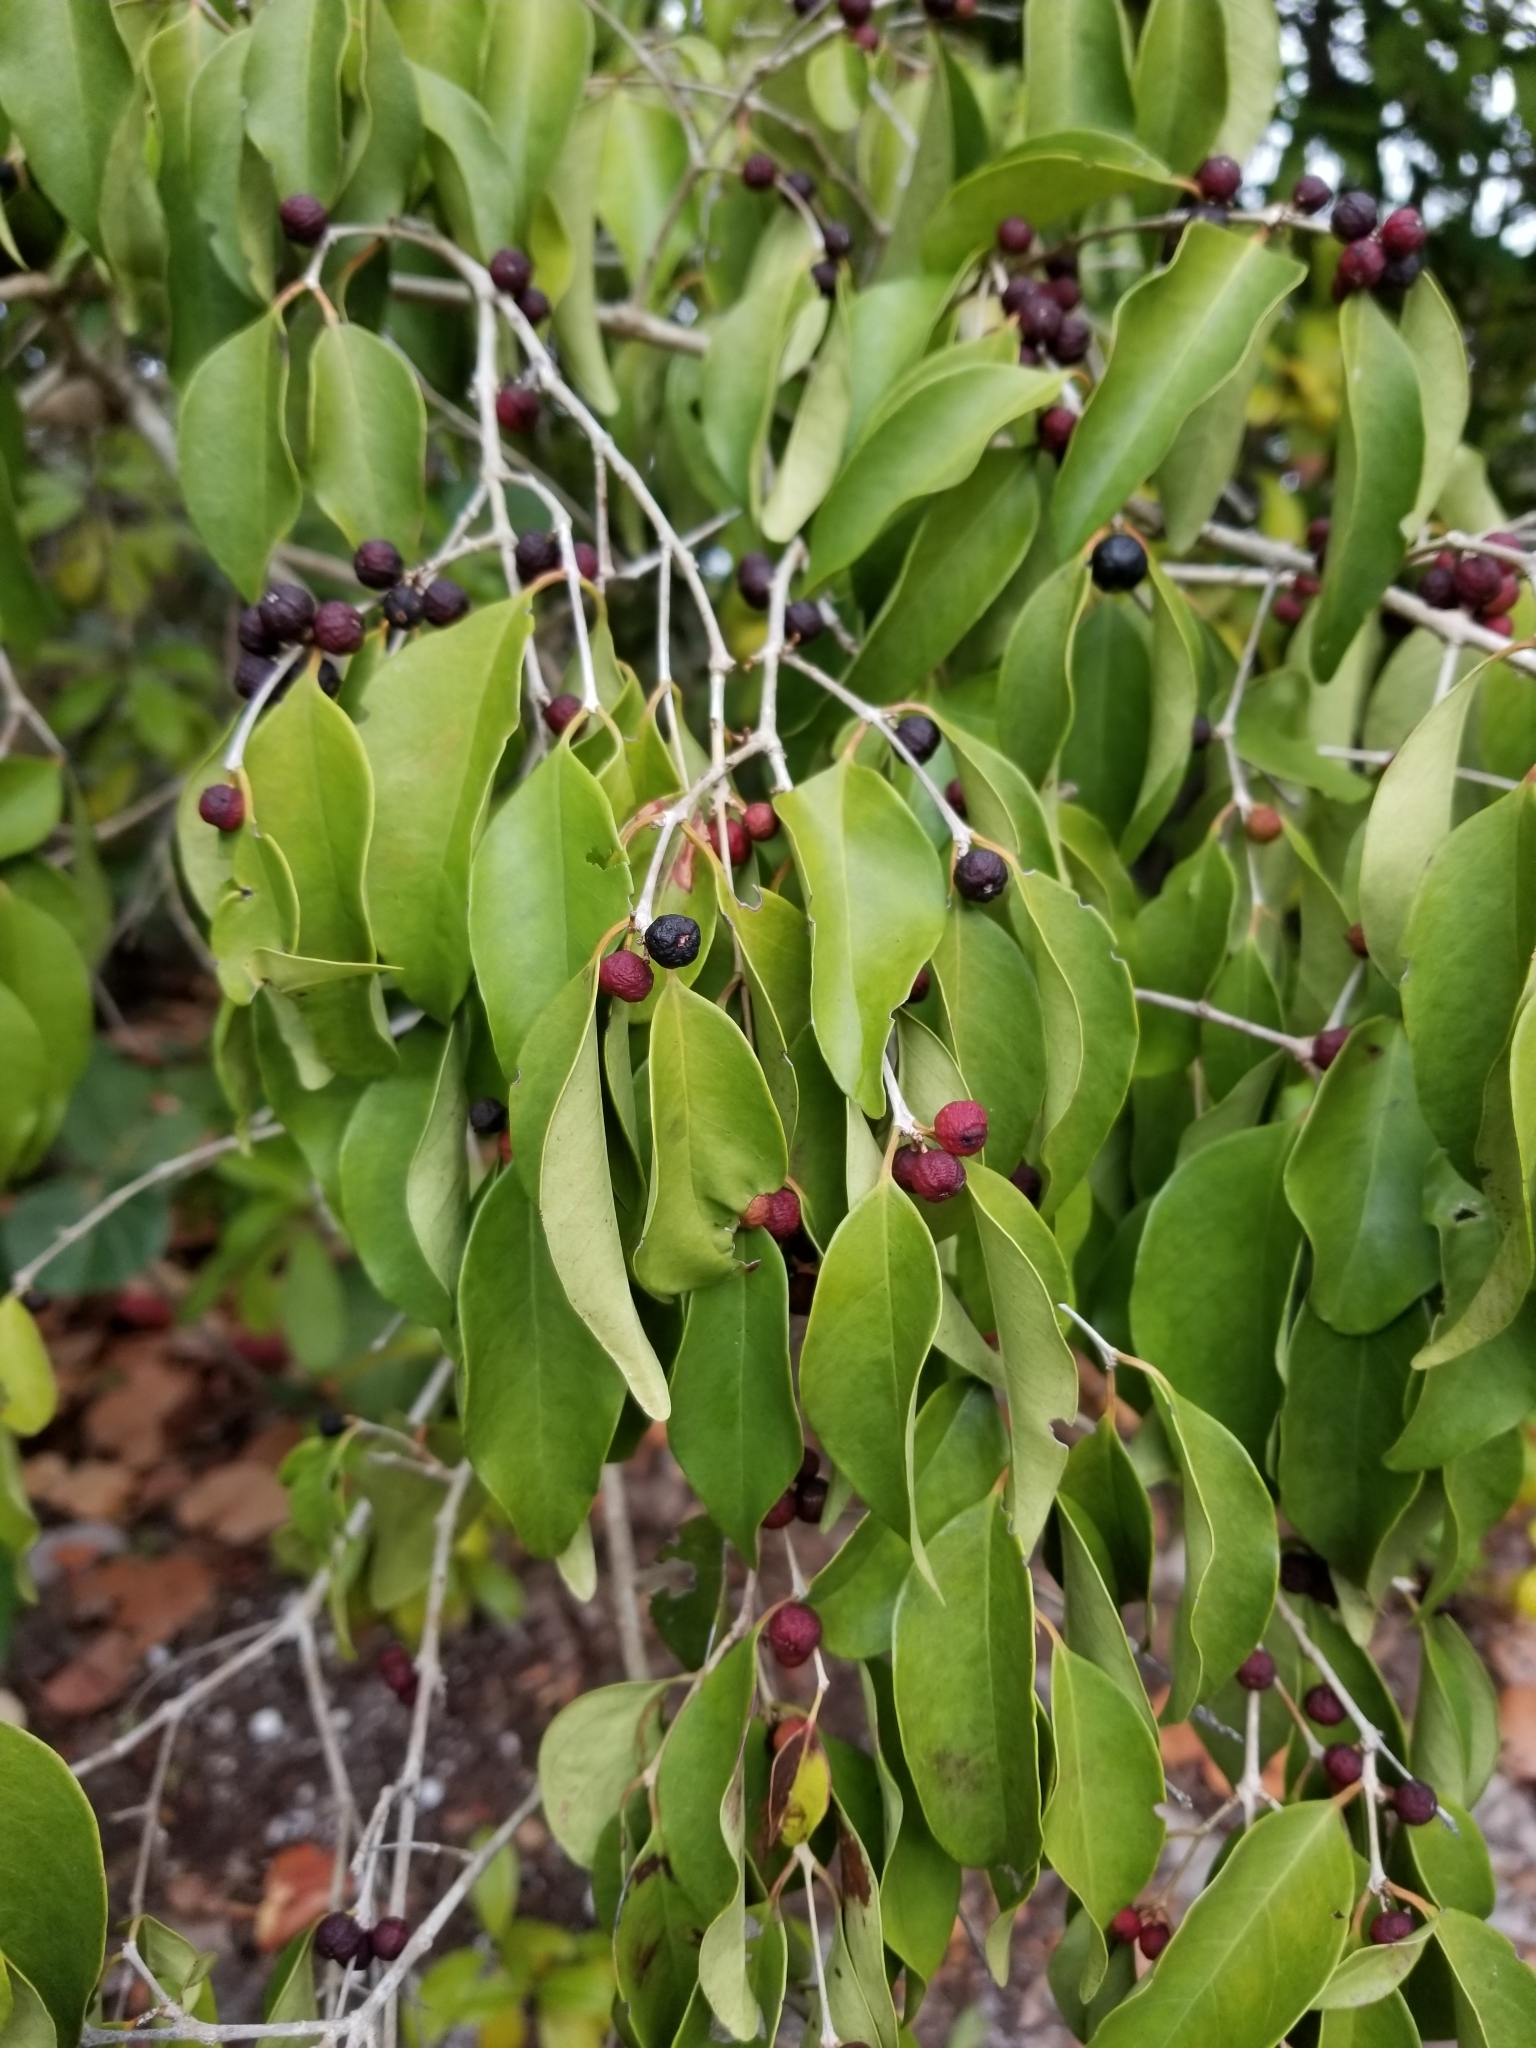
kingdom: Plantae
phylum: Tracheophyta
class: Magnoliopsida
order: Myrtales
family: Myrtaceae
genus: Eugenia
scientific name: Eugenia axillaris
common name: Choaky berry
